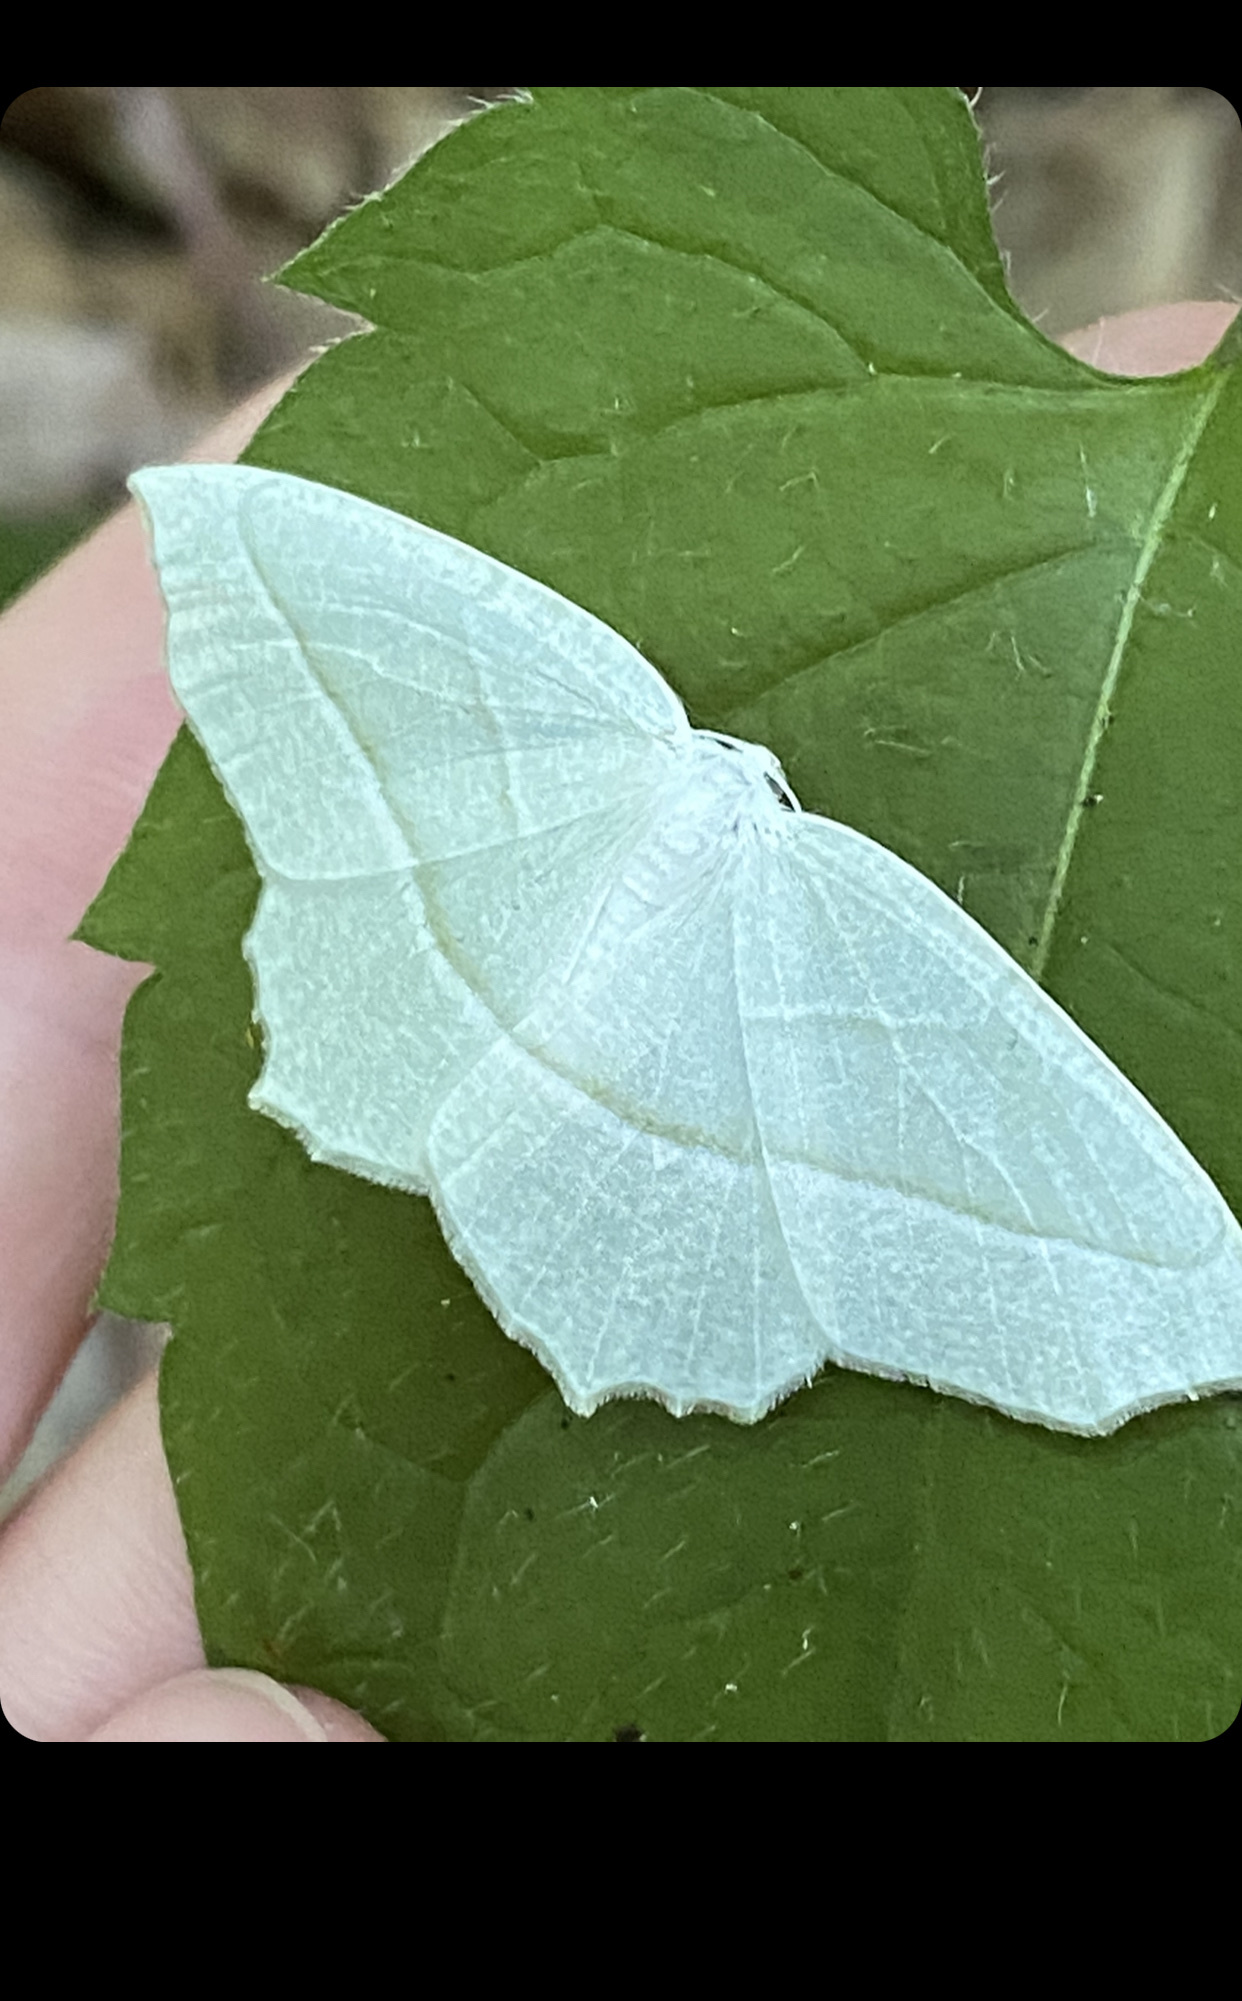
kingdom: Animalia
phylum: Arthropoda
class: Insecta
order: Lepidoptera
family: Geometridae
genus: Campaea
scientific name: Campaea perlata
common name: Fringed looper
